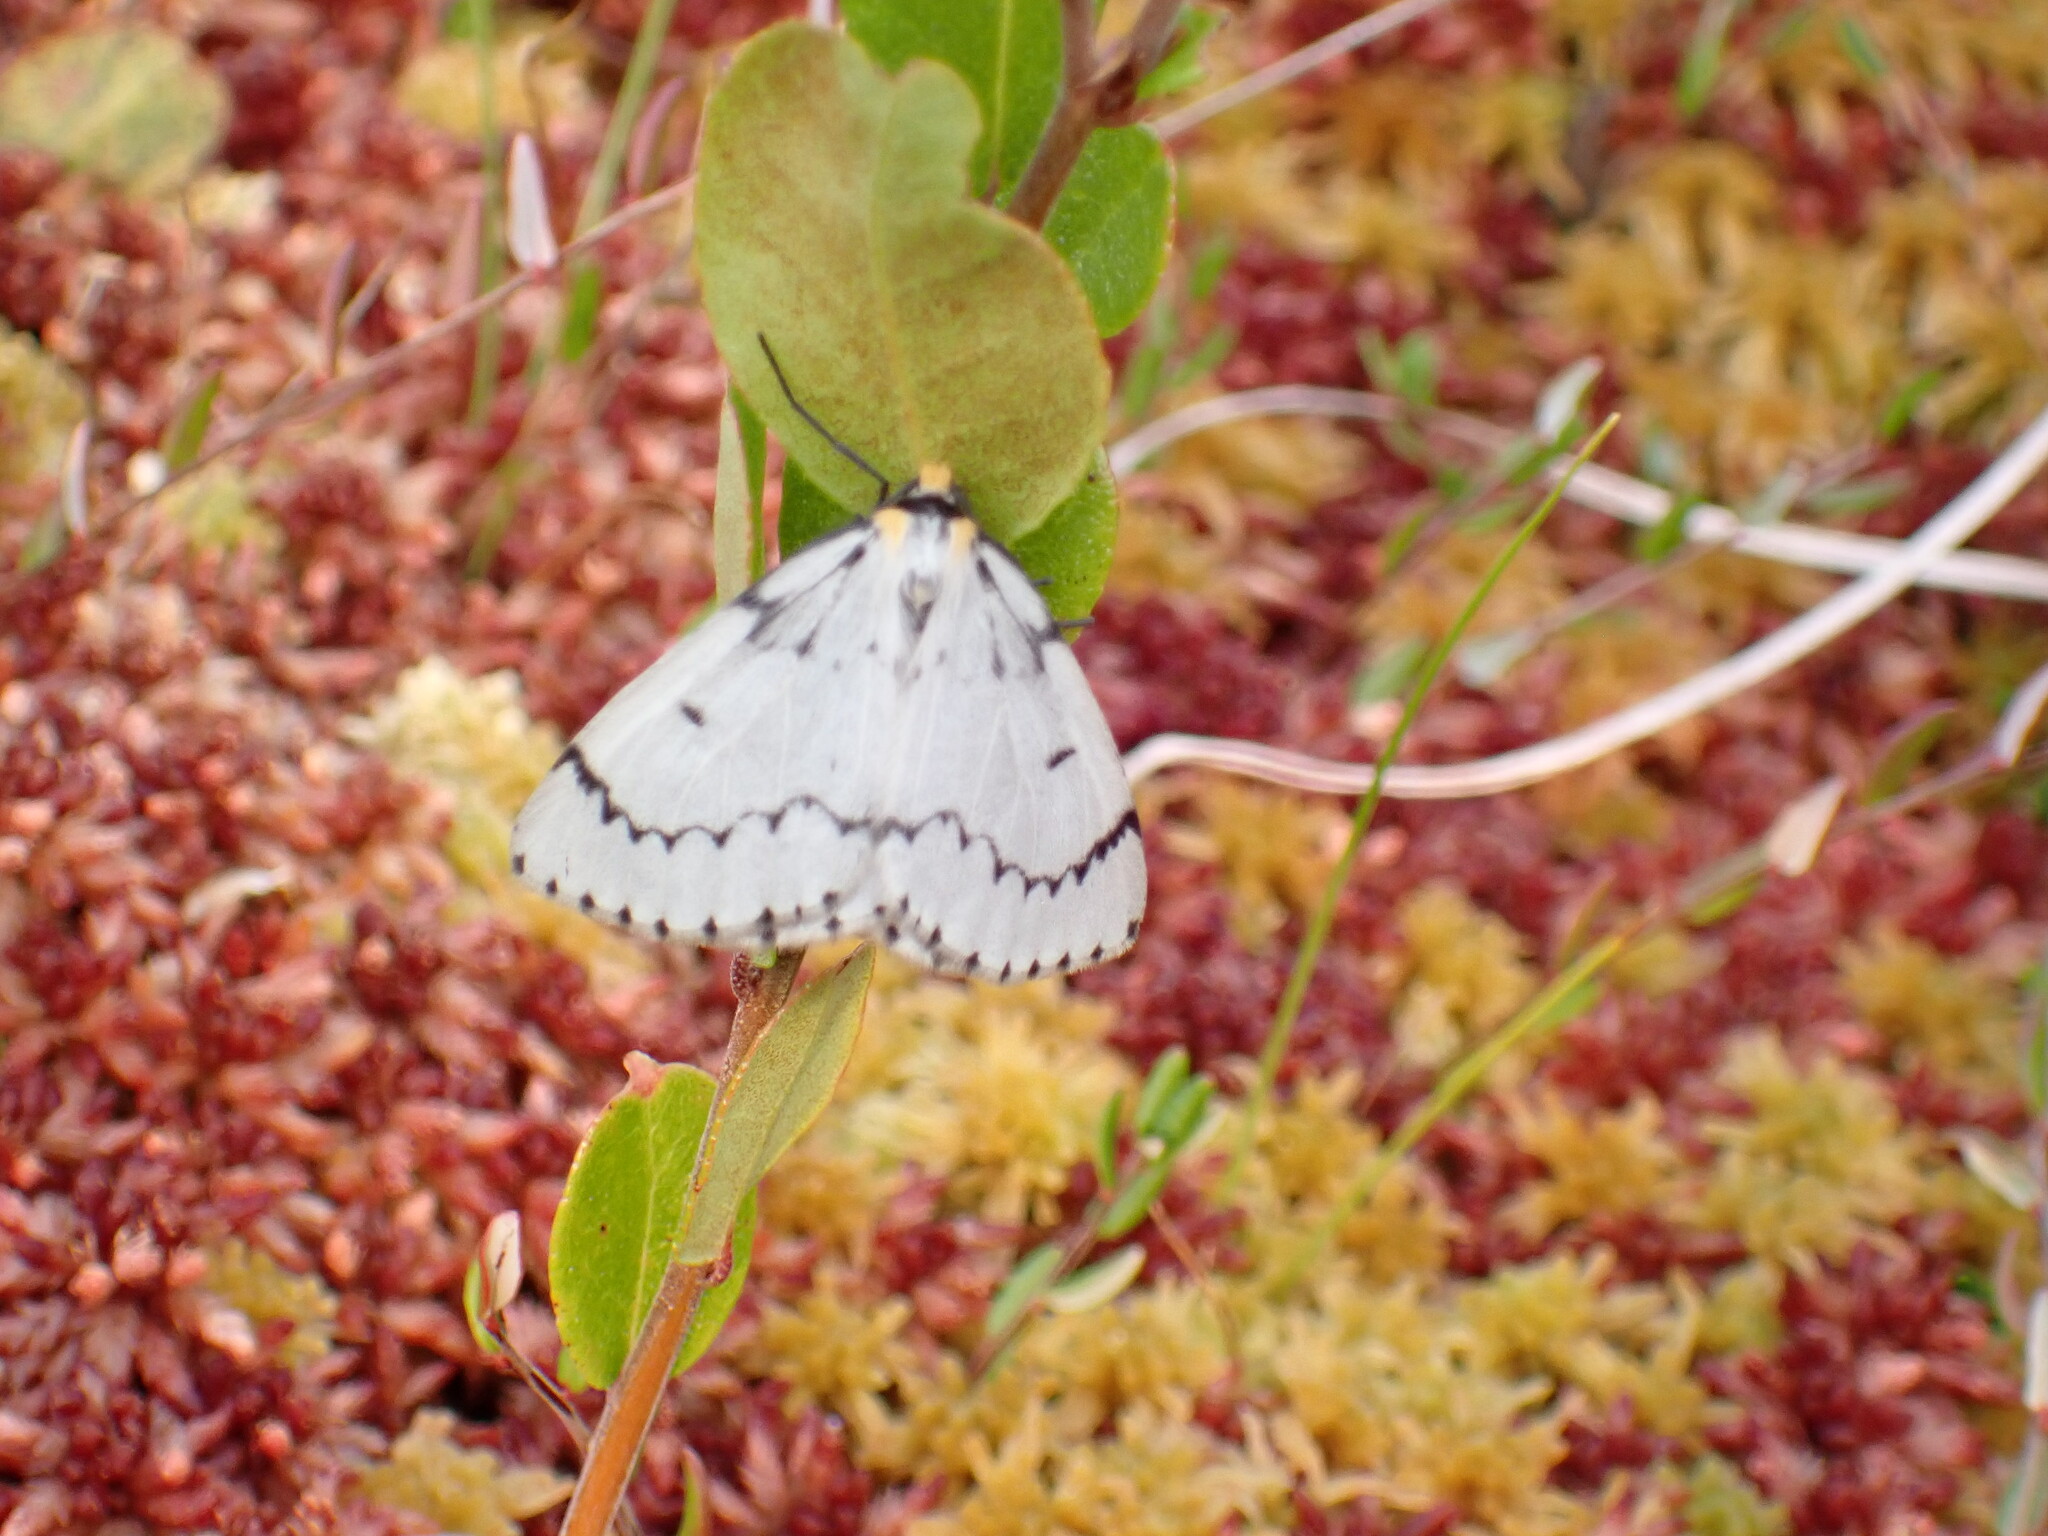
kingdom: Animalia
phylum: Arthropoda
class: Insecta
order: Lepidoptera
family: Geometridae
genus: Cingilia
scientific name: Cingilia catenaria
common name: Chain-dotted geometer
